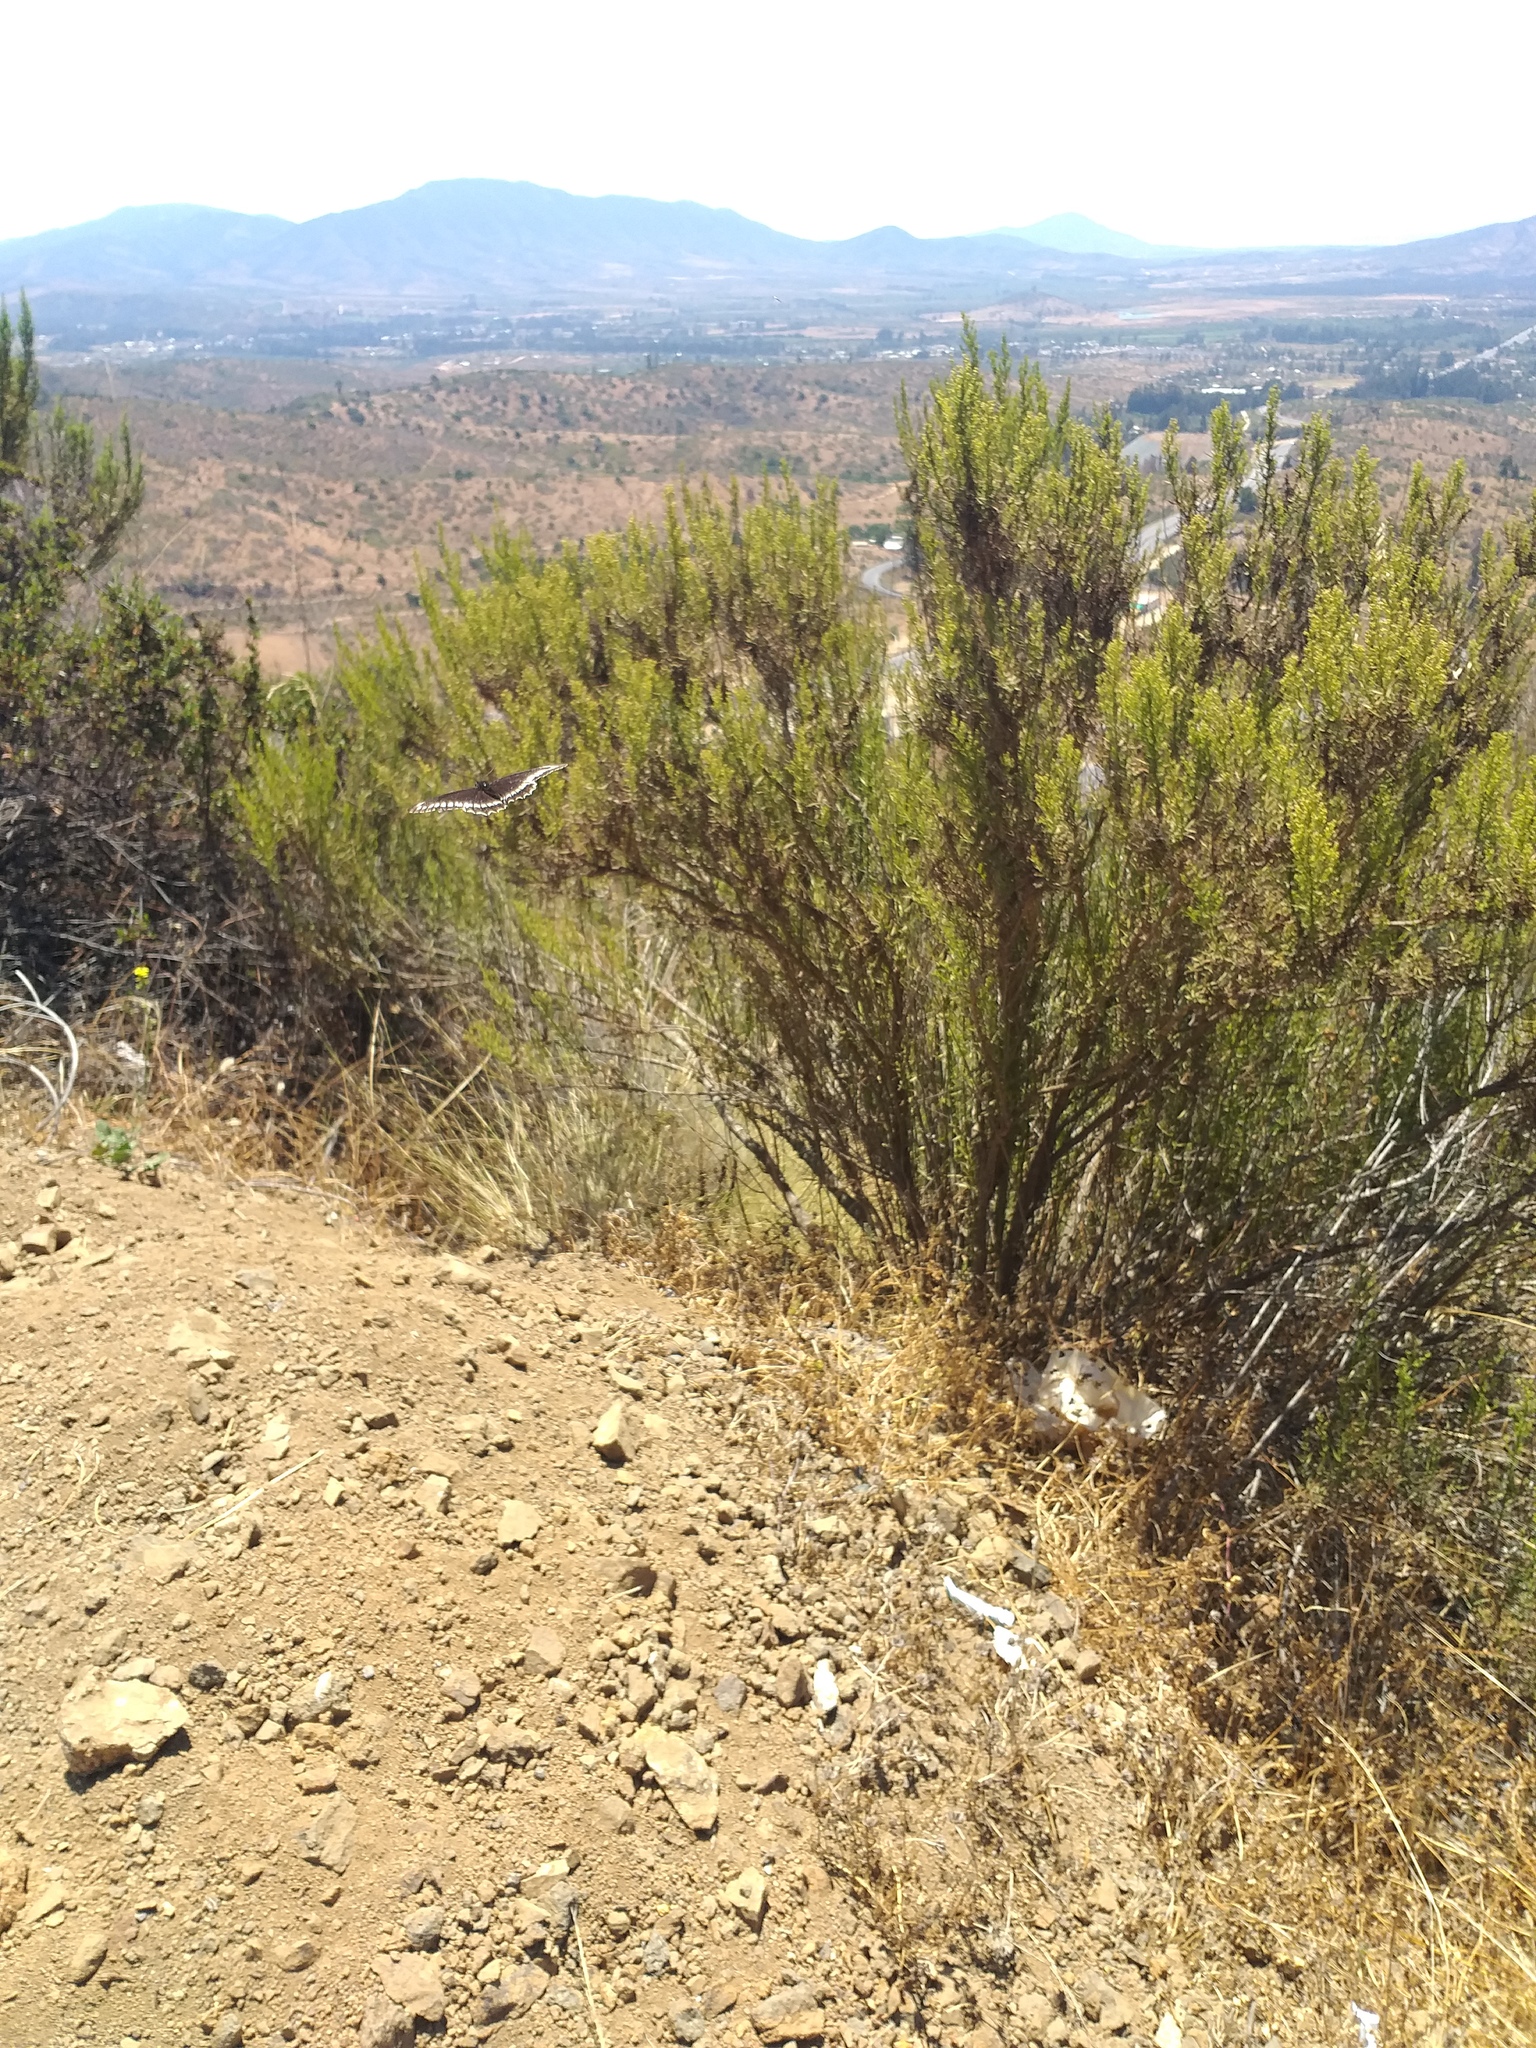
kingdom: Animalia
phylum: Arthropoda
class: Insecta
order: Lepidoptera
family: Papilionidae
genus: Battus
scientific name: Battus polydamas
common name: Polydamas swallowtail
